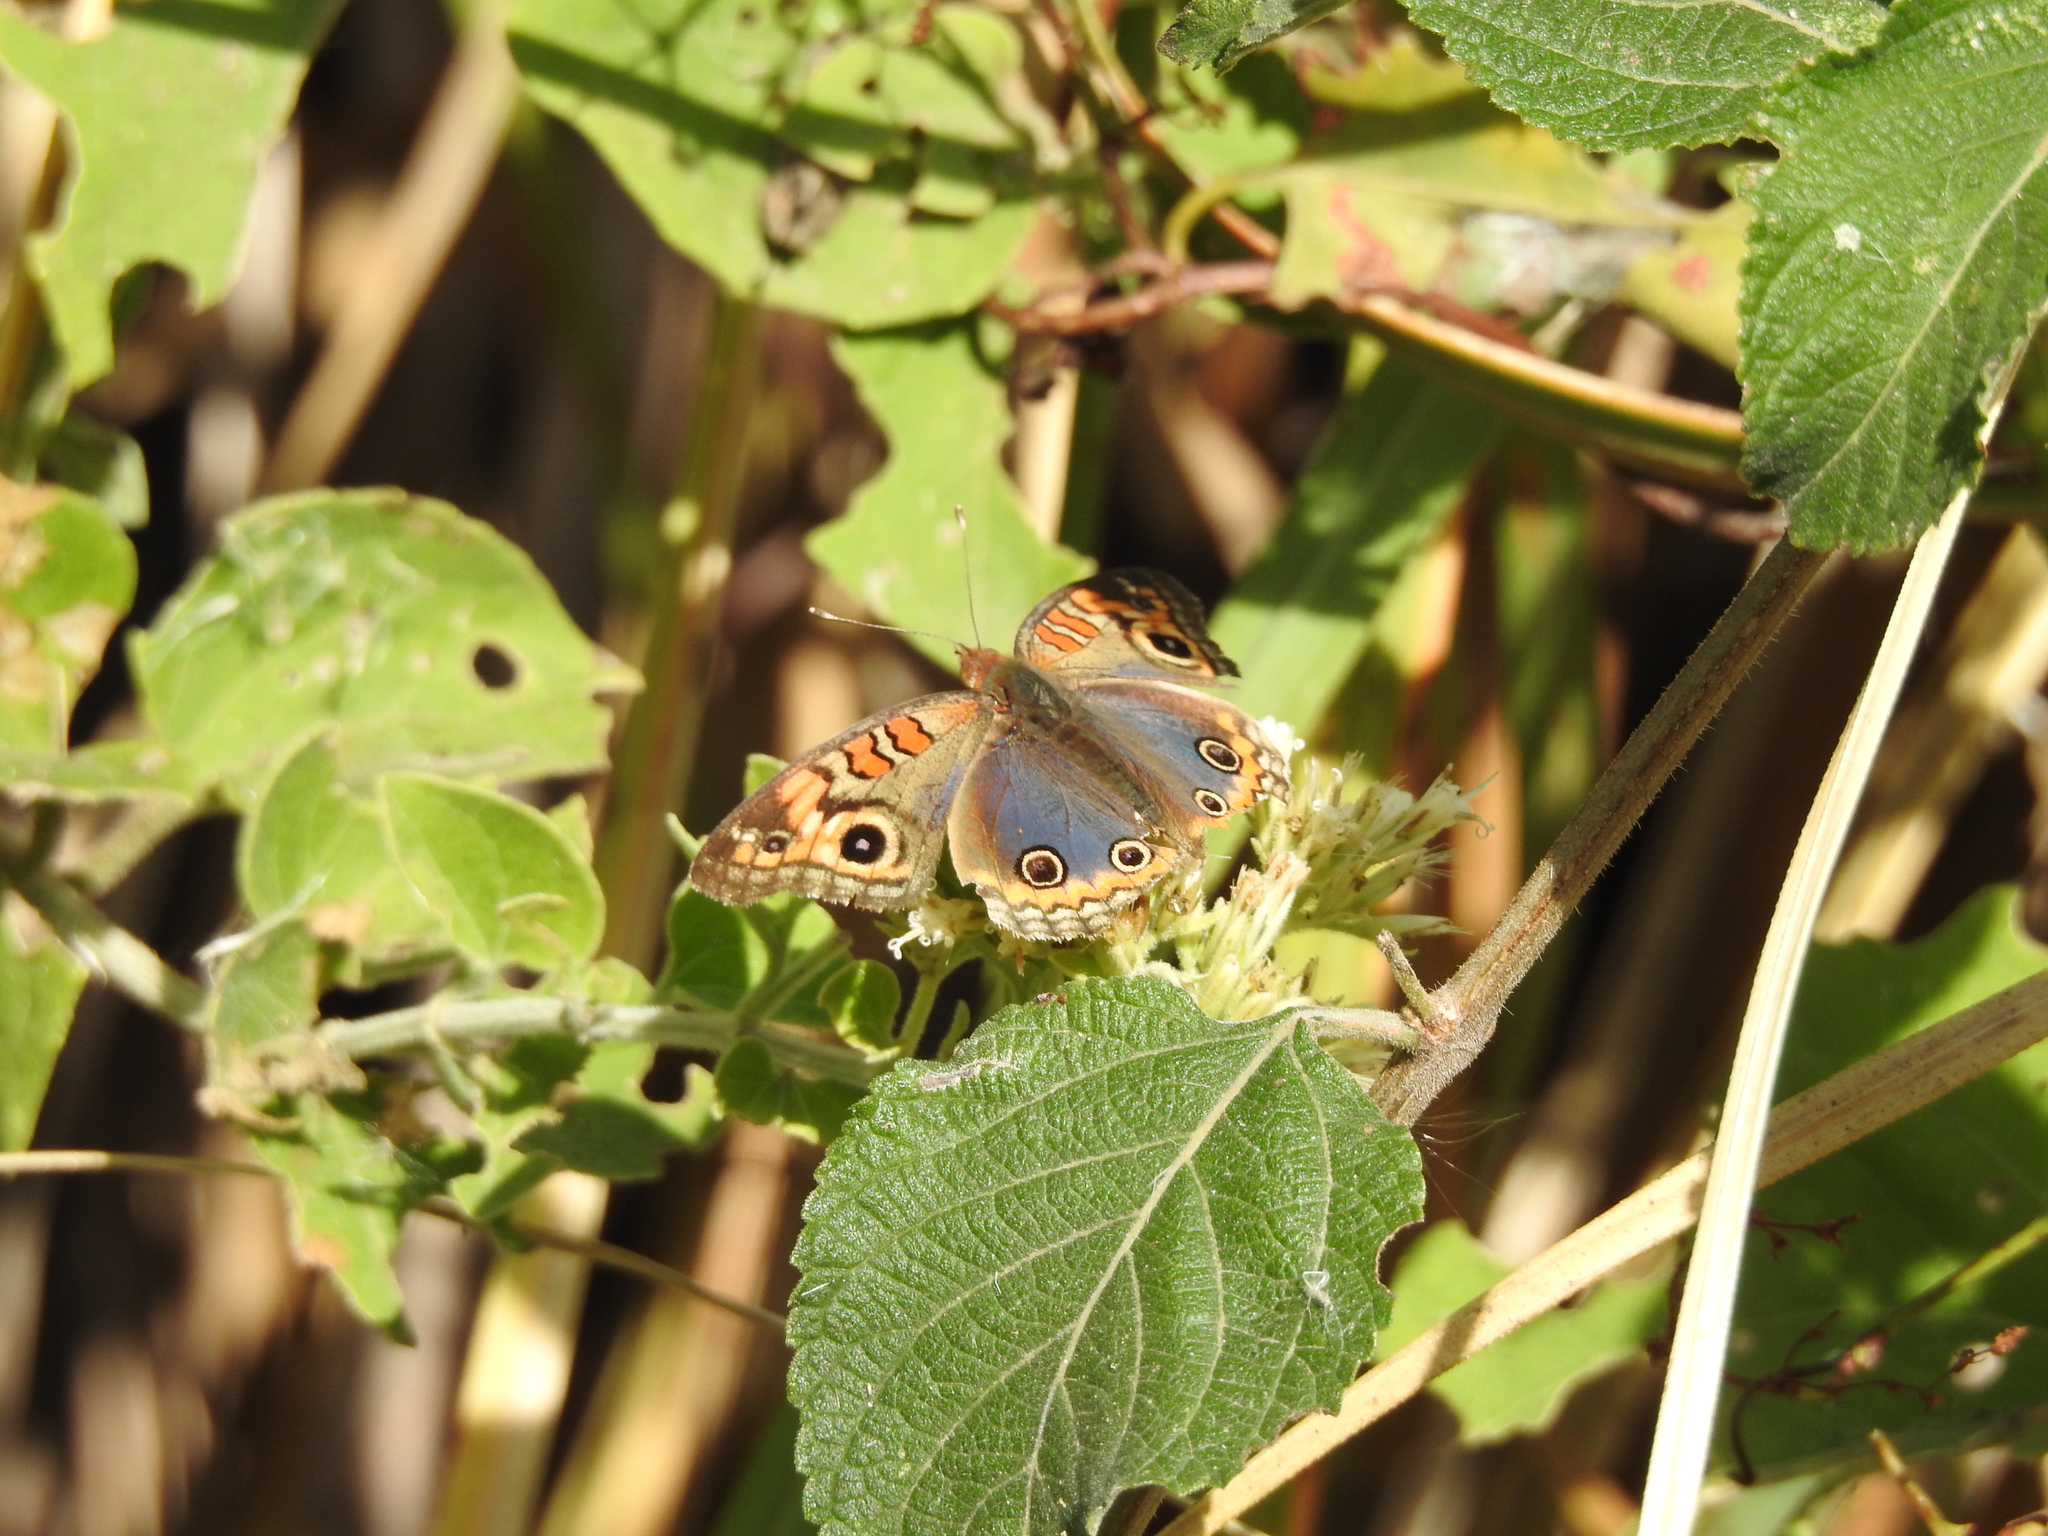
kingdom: Animalia
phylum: Arthropoda
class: Insecta
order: Lepidoptera
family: Nymphalidae
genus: Junonia
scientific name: Junonia lavinia
